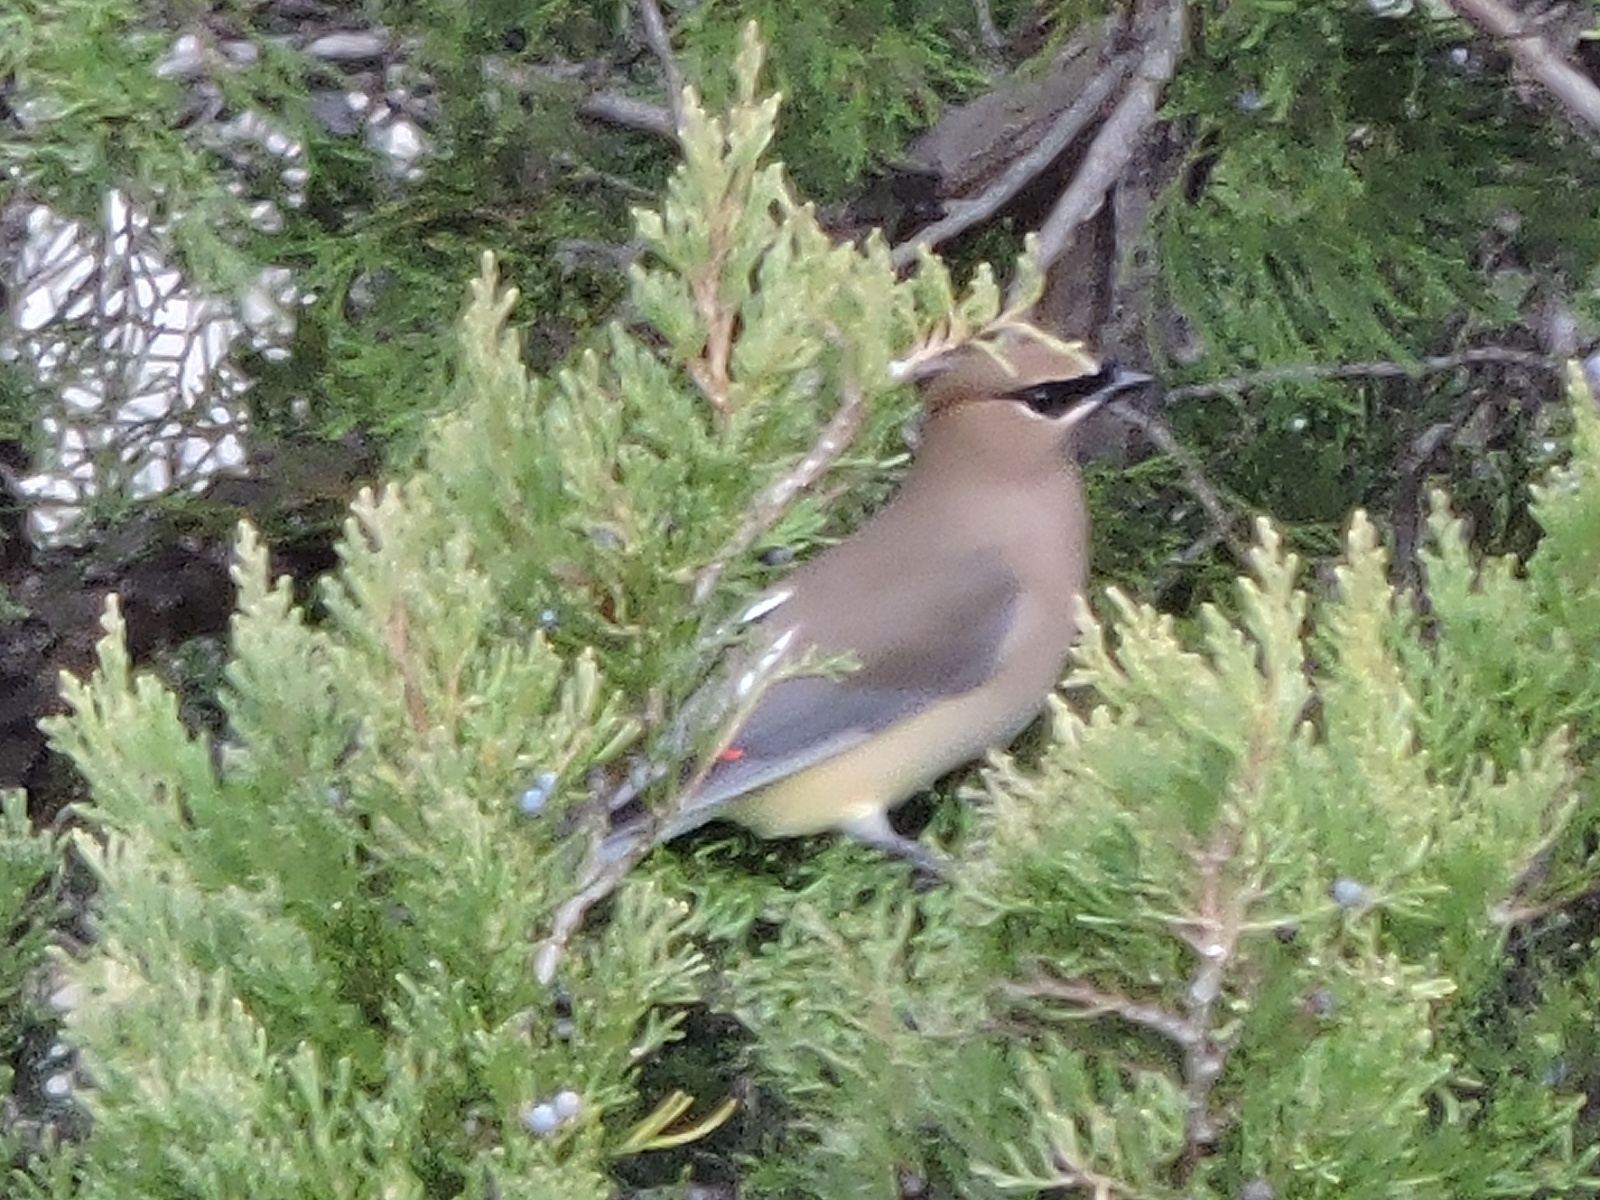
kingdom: Animalia
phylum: Chordata
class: Aves
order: Passeriformes
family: Bombycillidae
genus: Bombycilla
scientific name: Bombycilla cedrorum
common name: Cedar waxwing
